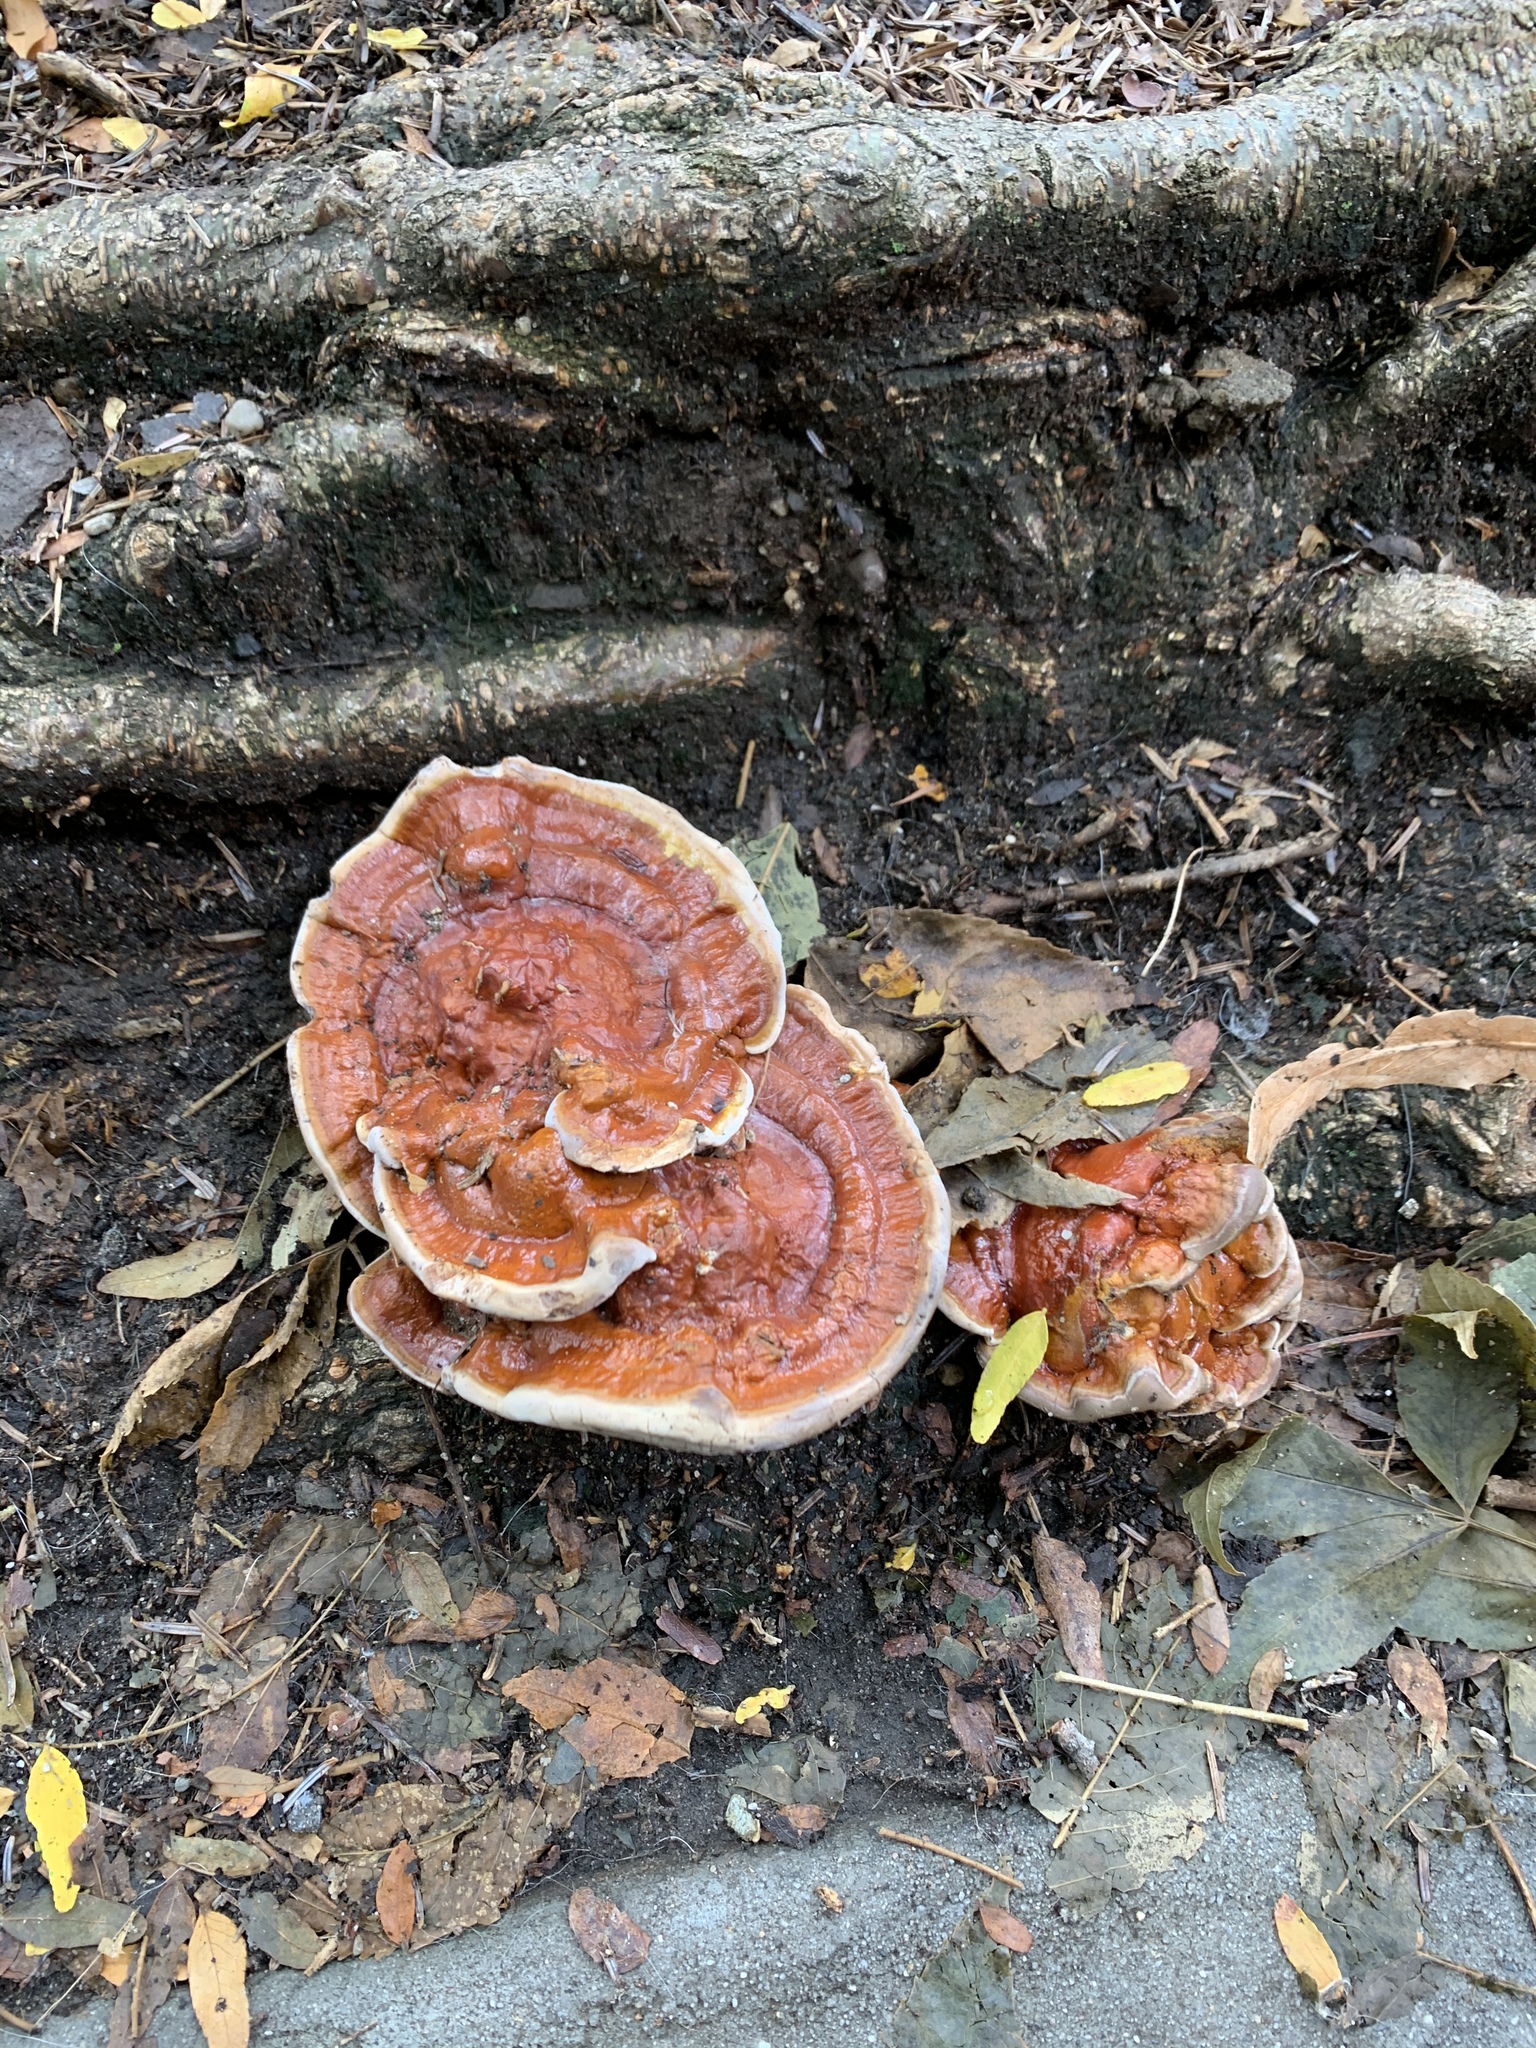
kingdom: Fungi
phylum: Basidiomycota
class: Agaricomycetes
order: Polyporales
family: Polyporaceae
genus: Ganoderma
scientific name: Ganoderma resinaceum
